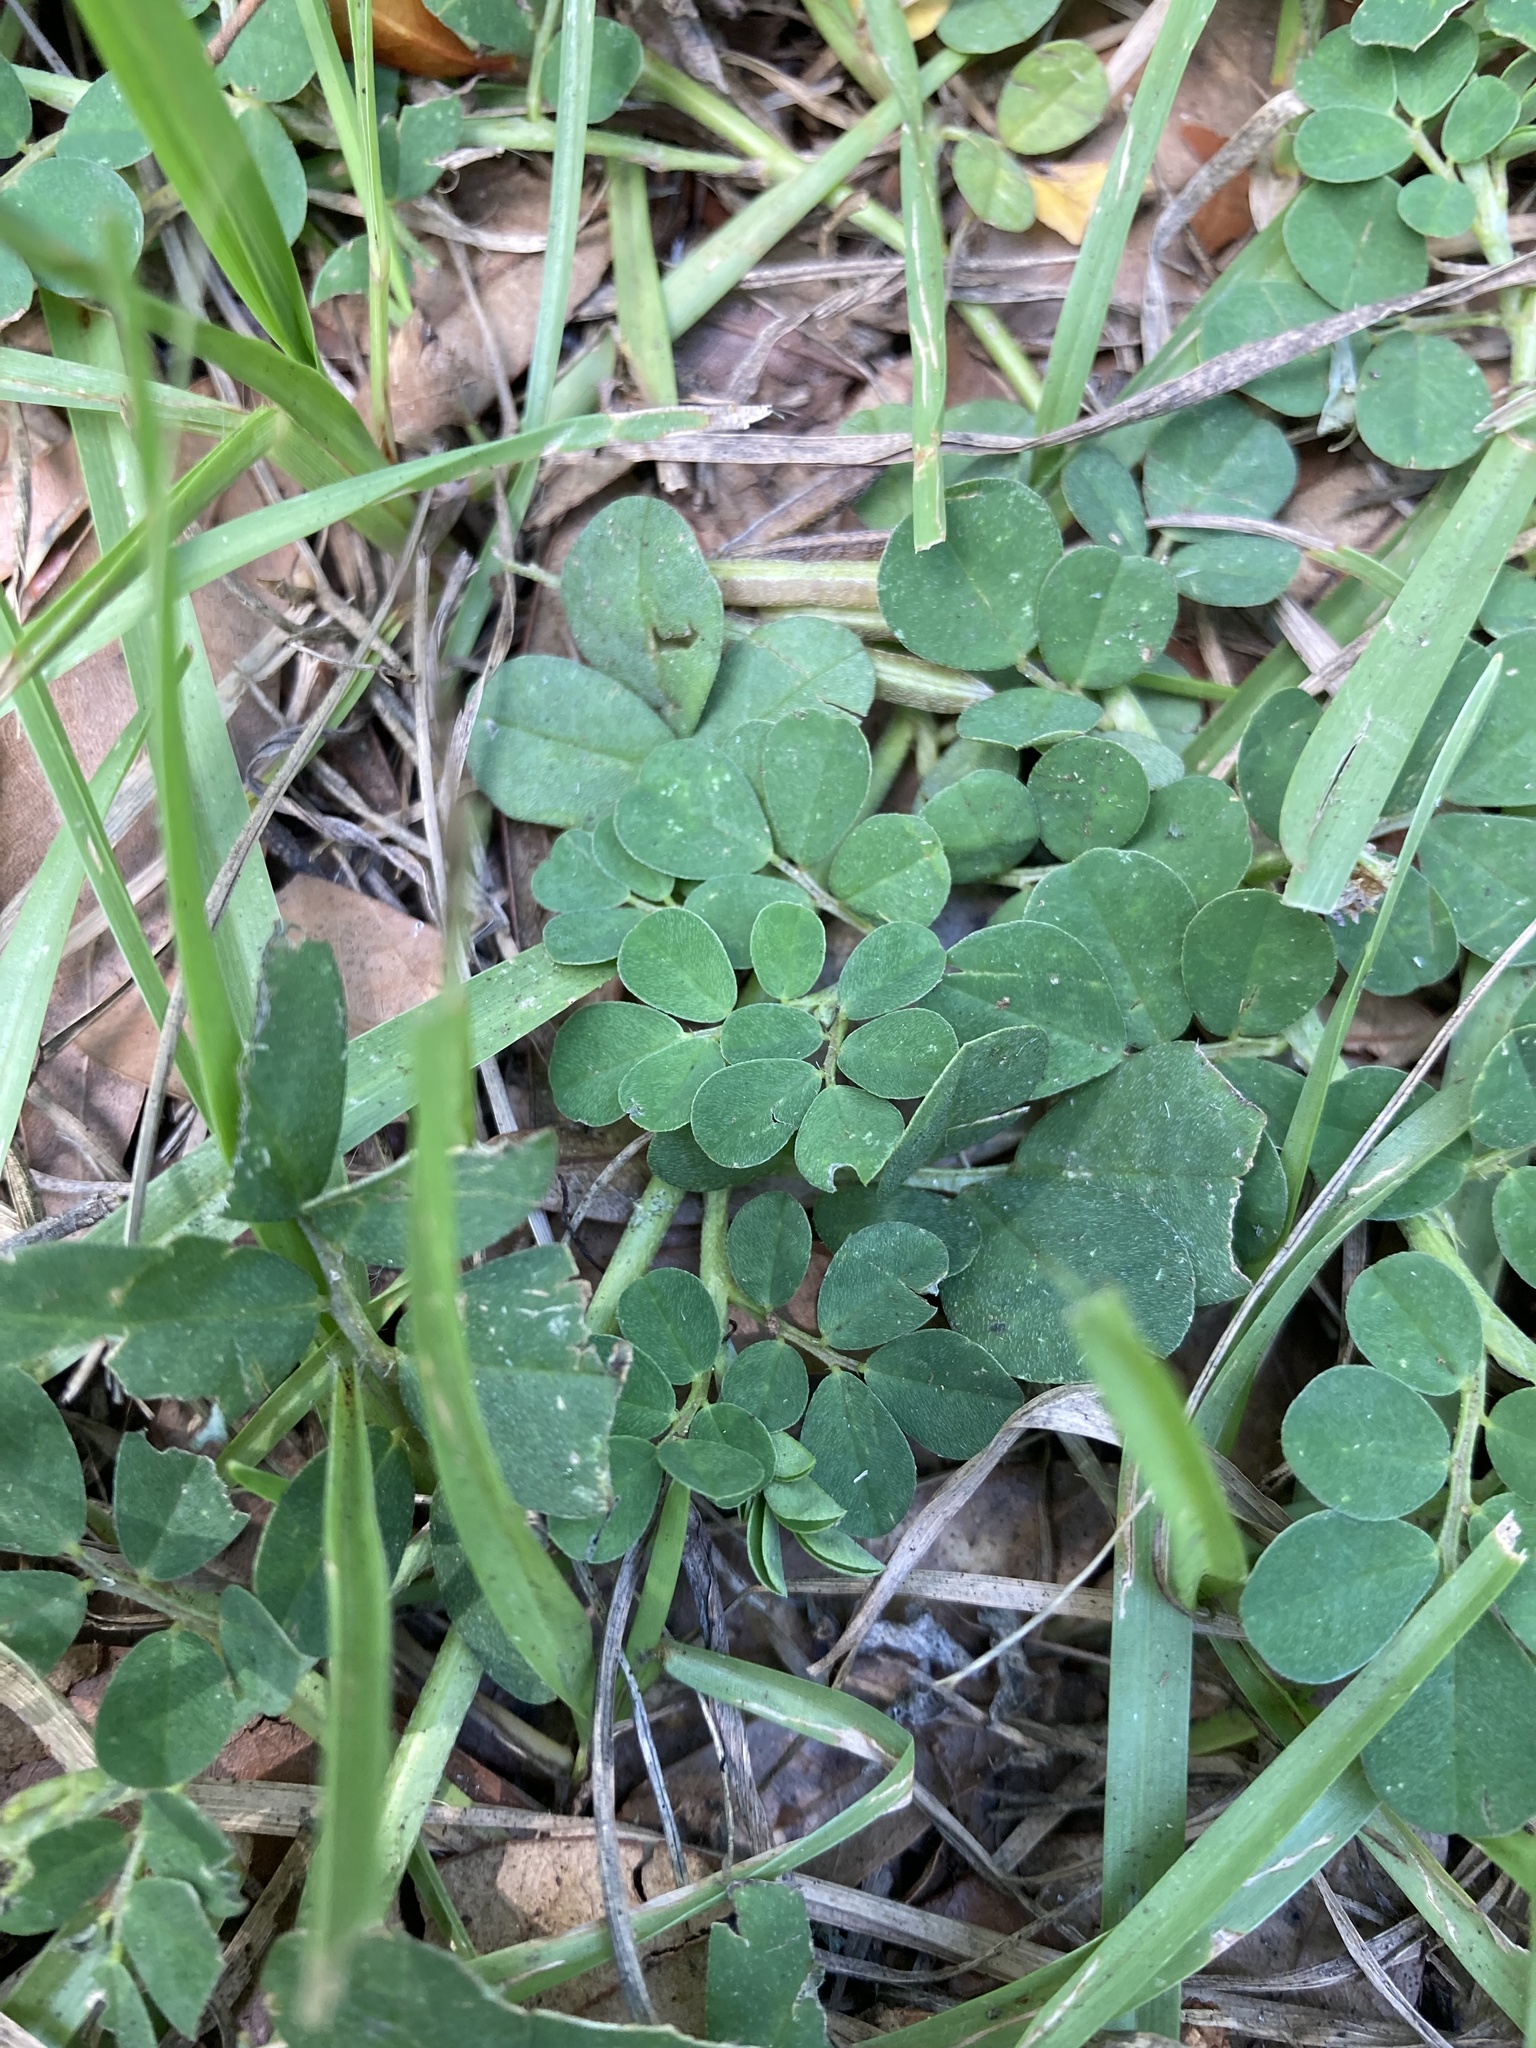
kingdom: Plantae
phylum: Tracheophyta
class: Magnoliopsida
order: Fabales
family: Fabaceae
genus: Indigofera
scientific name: Indigofera spicata
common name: Creeping indigo
